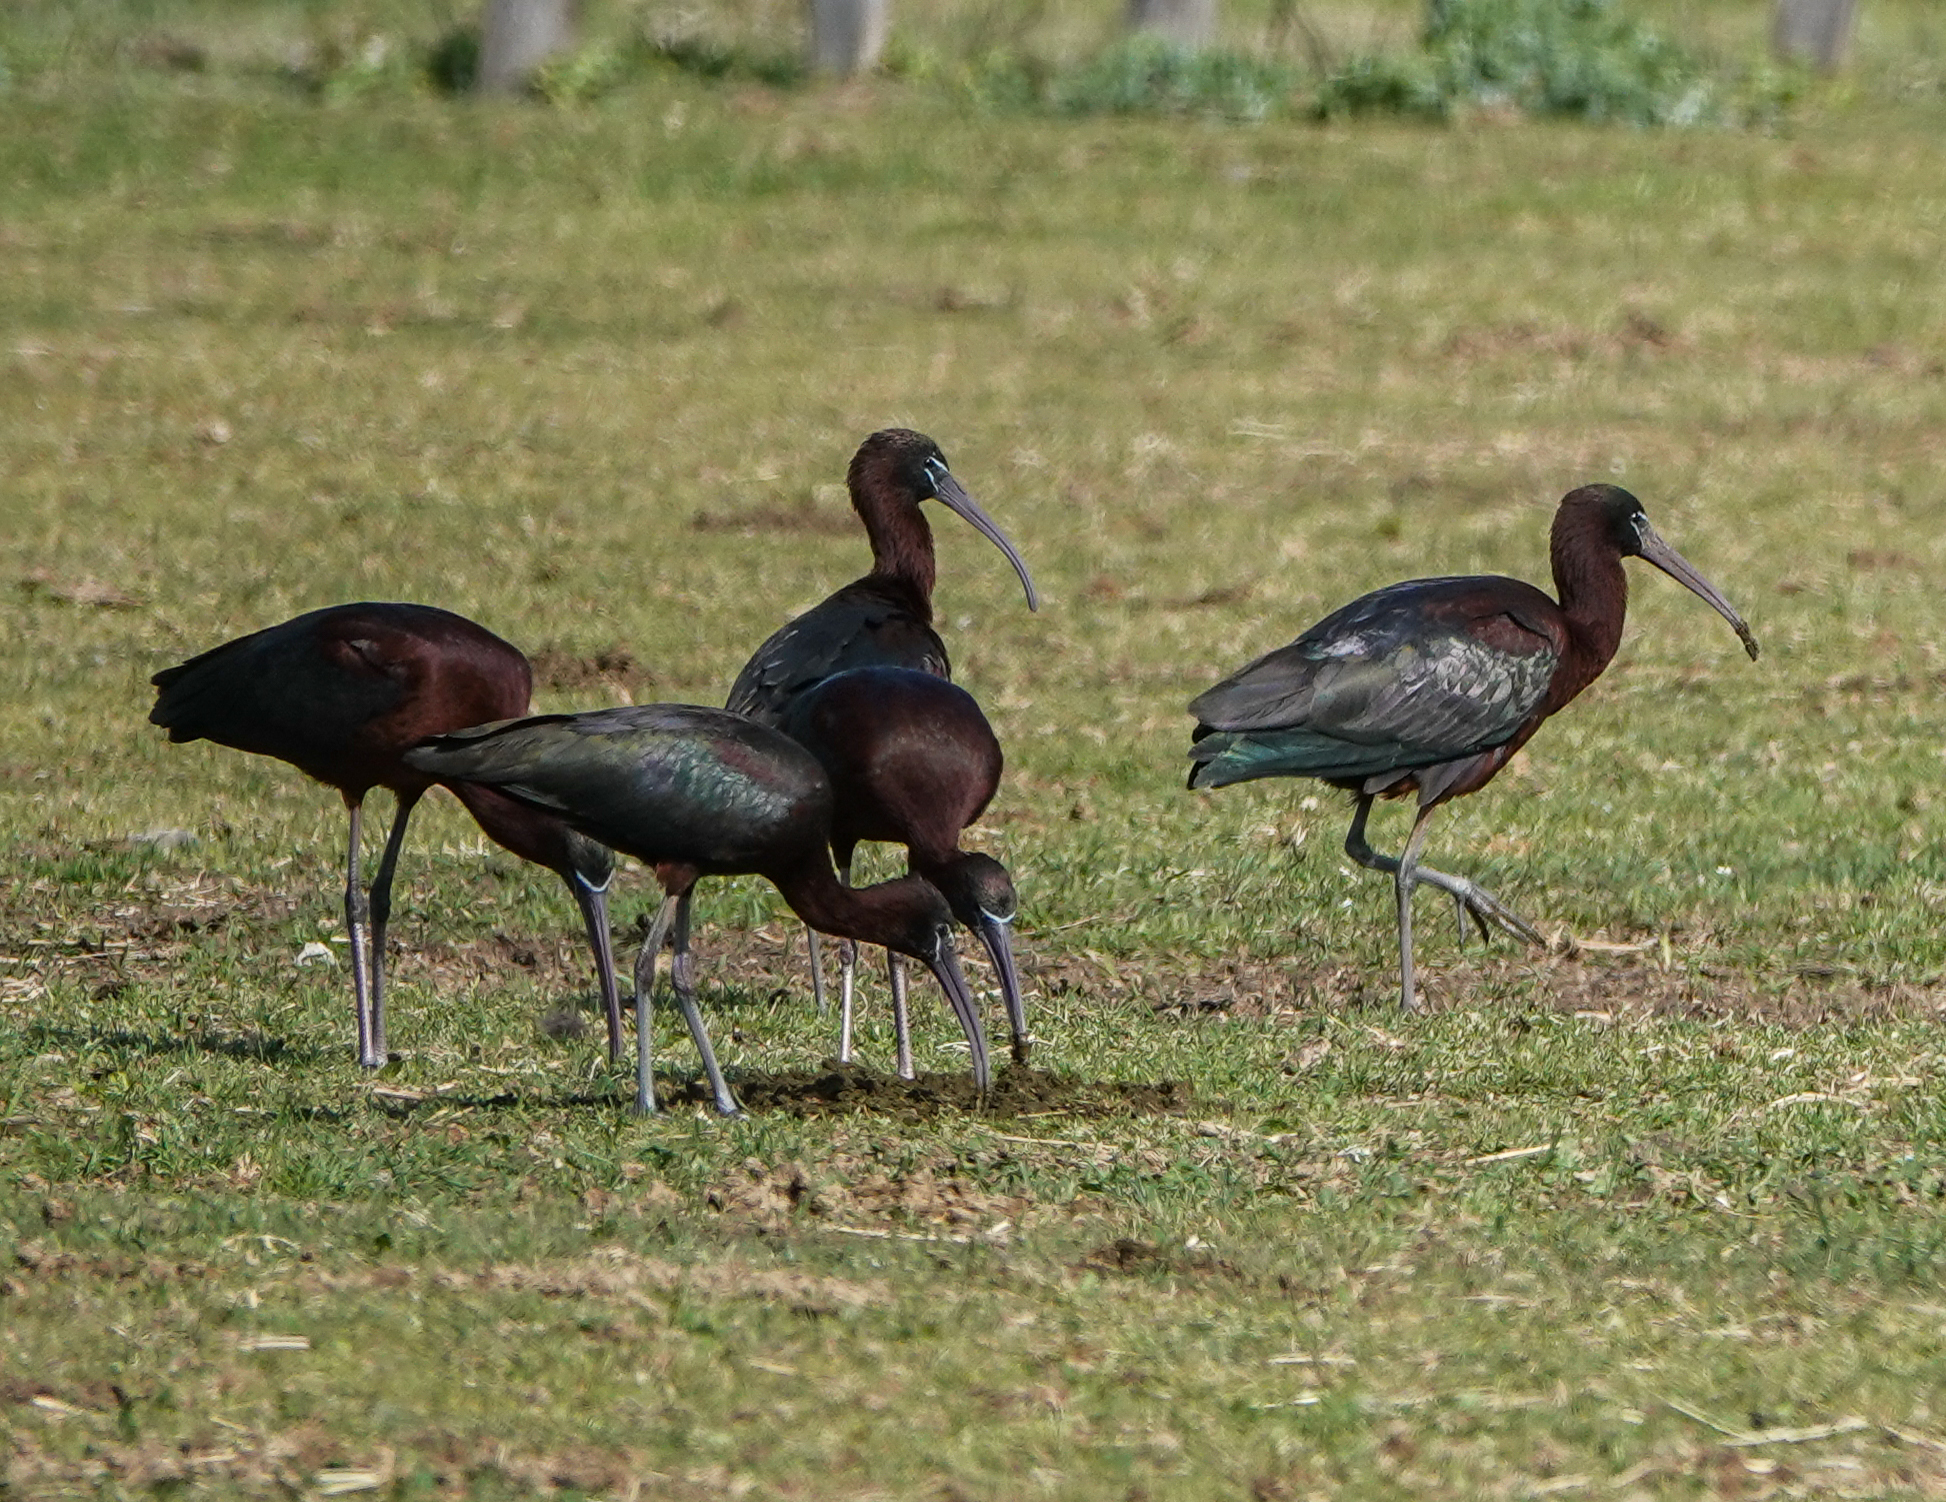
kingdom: Animalia
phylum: Chordata
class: Aves
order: Pelecaniformes
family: Threskiornithidae
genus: Plegadis
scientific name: Plegadis falcinellus
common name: Glossy ibis
